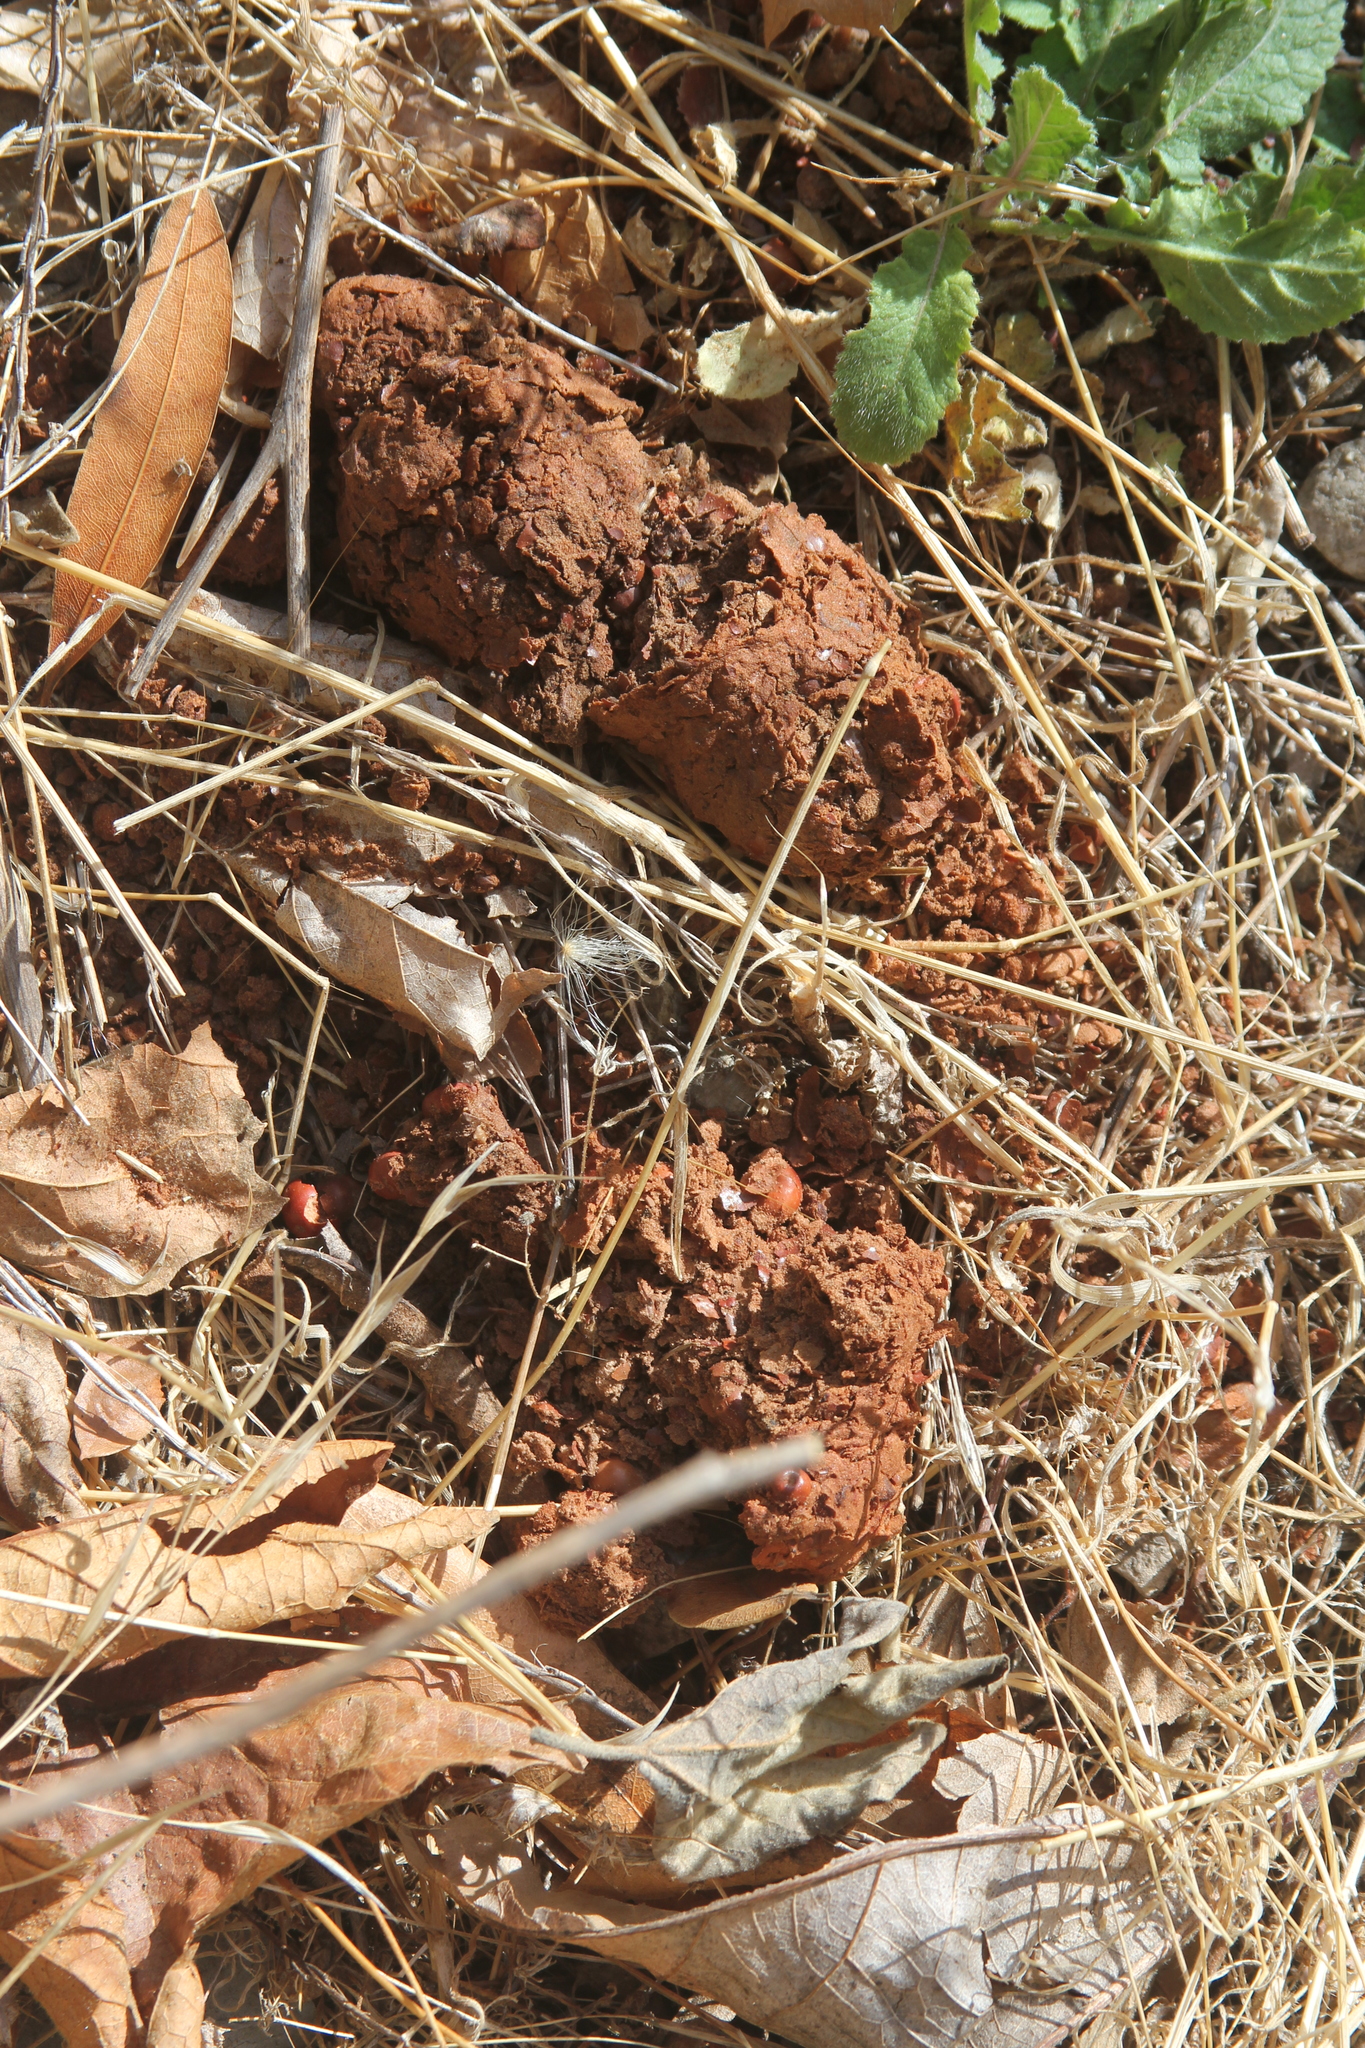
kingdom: Animalia
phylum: Chordata
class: Mammalia
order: Carnivora
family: Ursidae
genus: Ursus
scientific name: Ursus americanus
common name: American black bear
